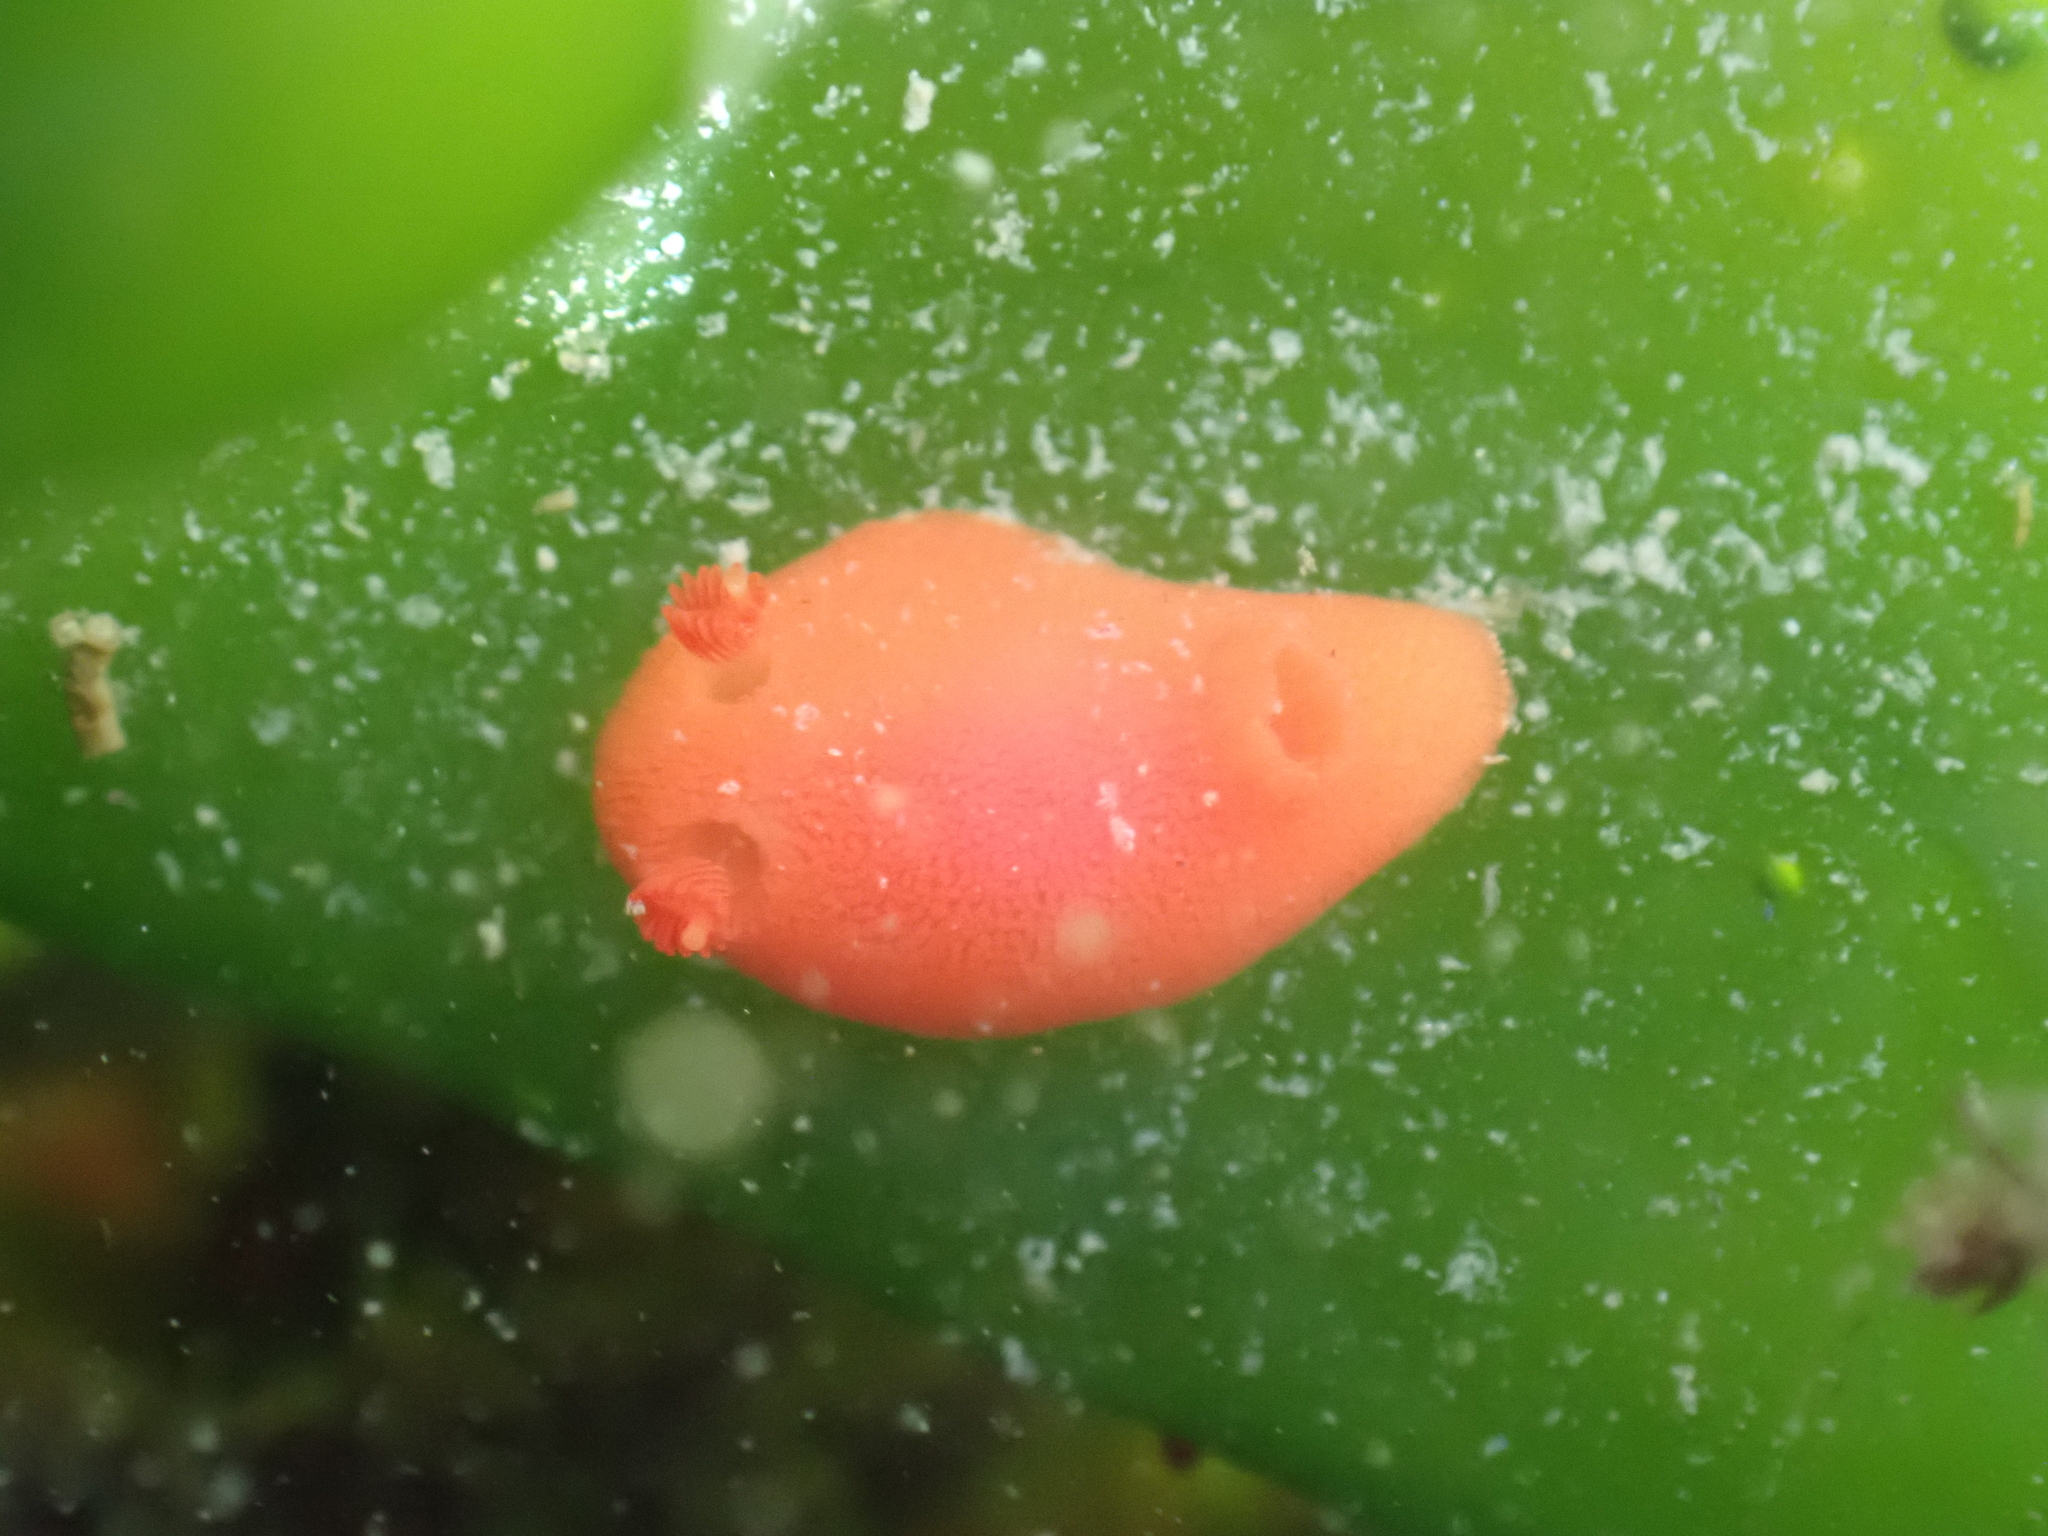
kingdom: Animalia
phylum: Mollusca
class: Gastropoda
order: Nudibranchia
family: Discodorididae
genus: Rostanga
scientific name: Rostanga pulchra
